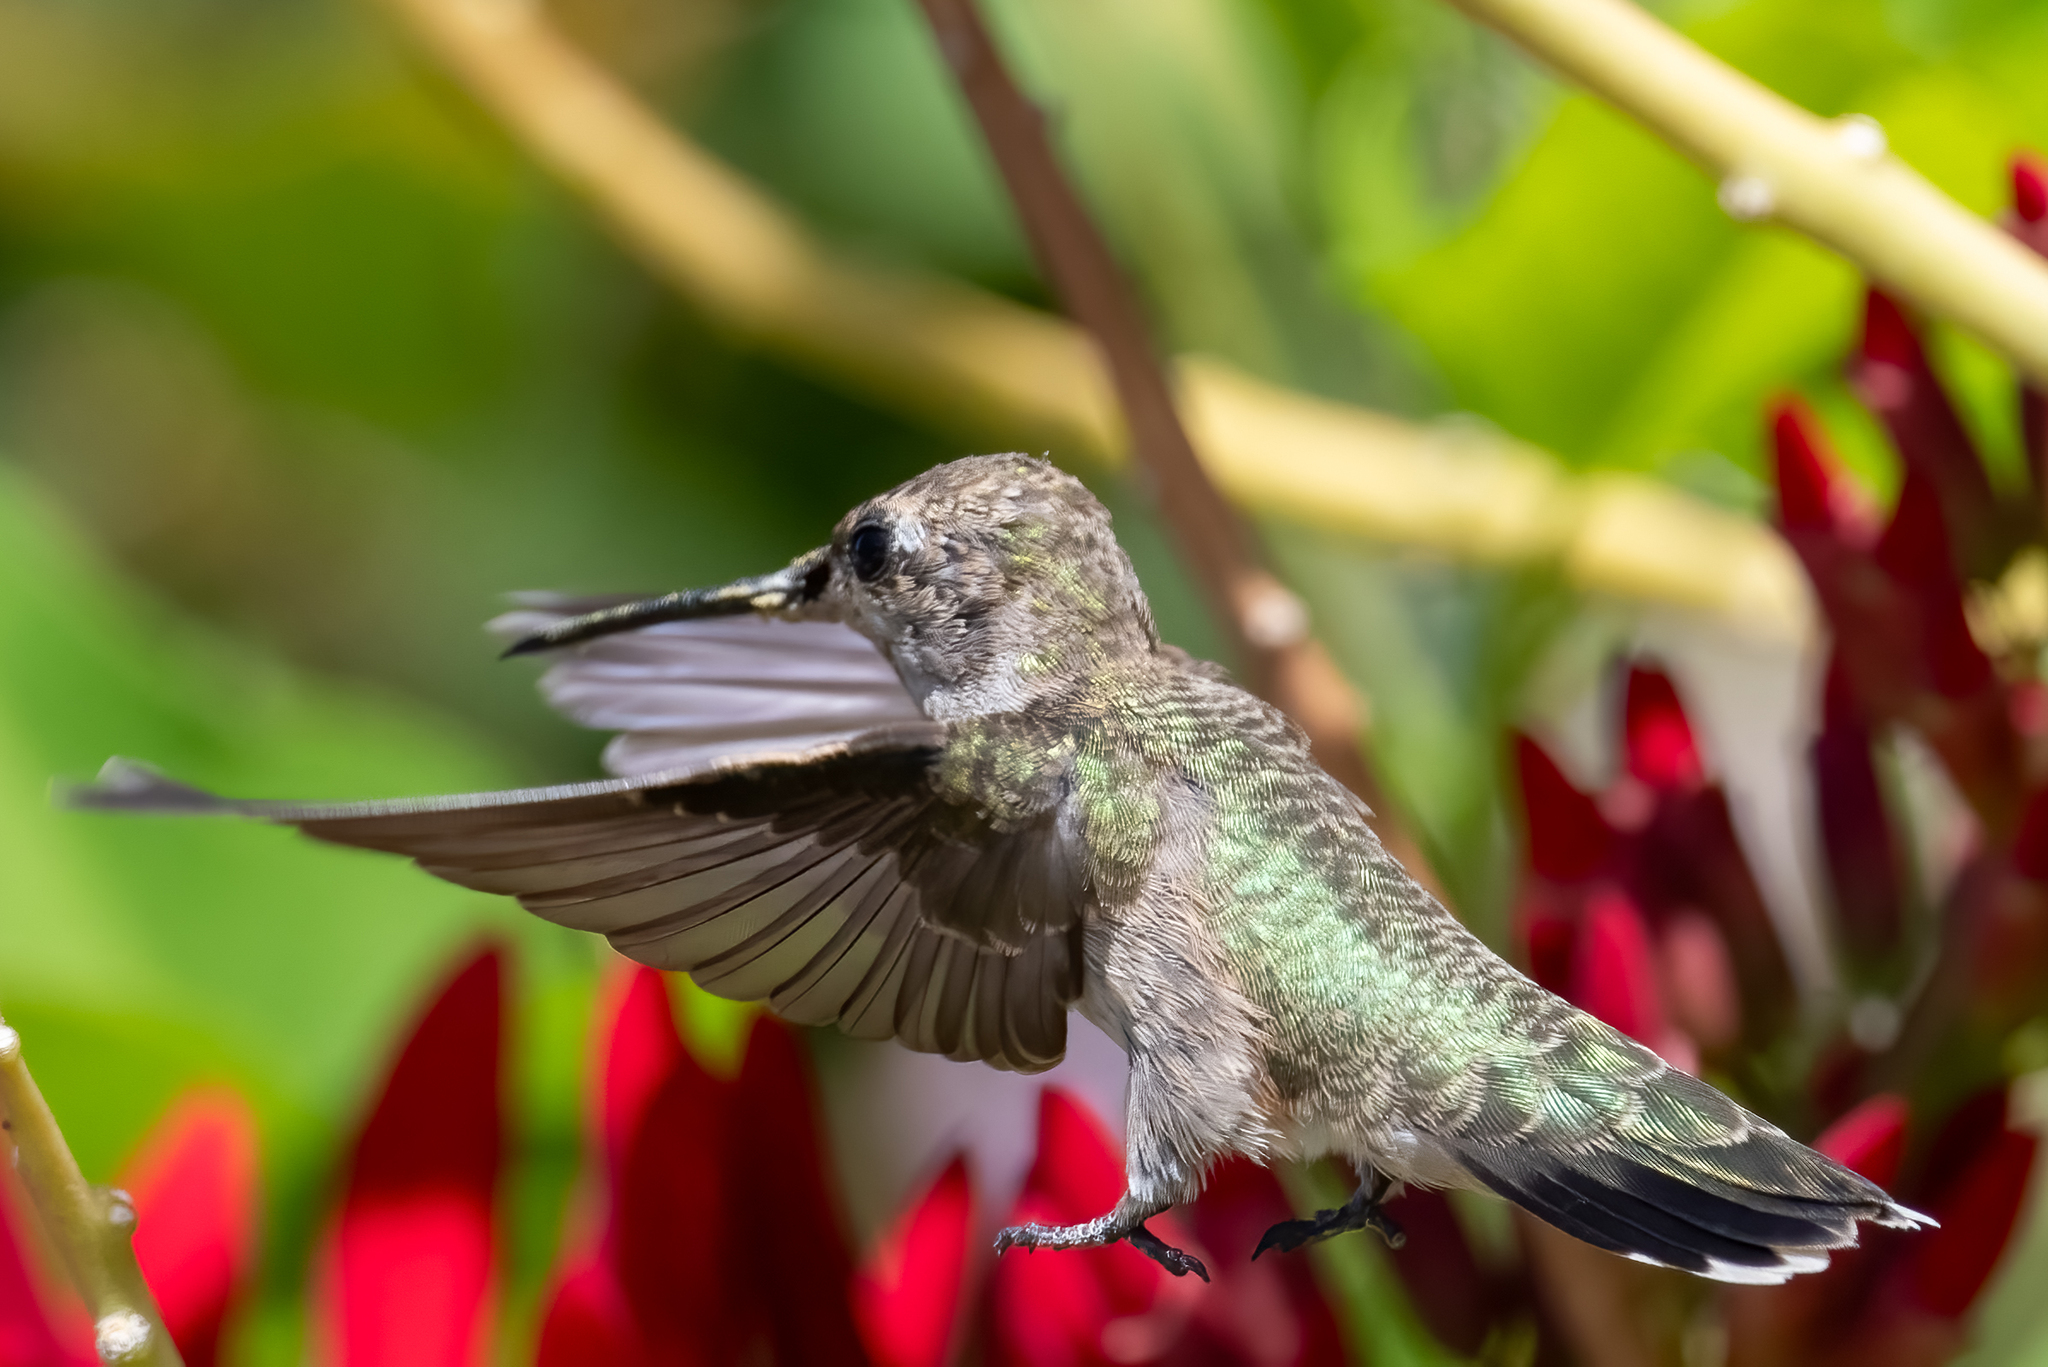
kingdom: Animalia
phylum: Chordata
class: Aves
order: Apodiformes
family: Trochilidae
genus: Archilochus
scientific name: Archilochus alexandri
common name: Black-chinned hummingbird
